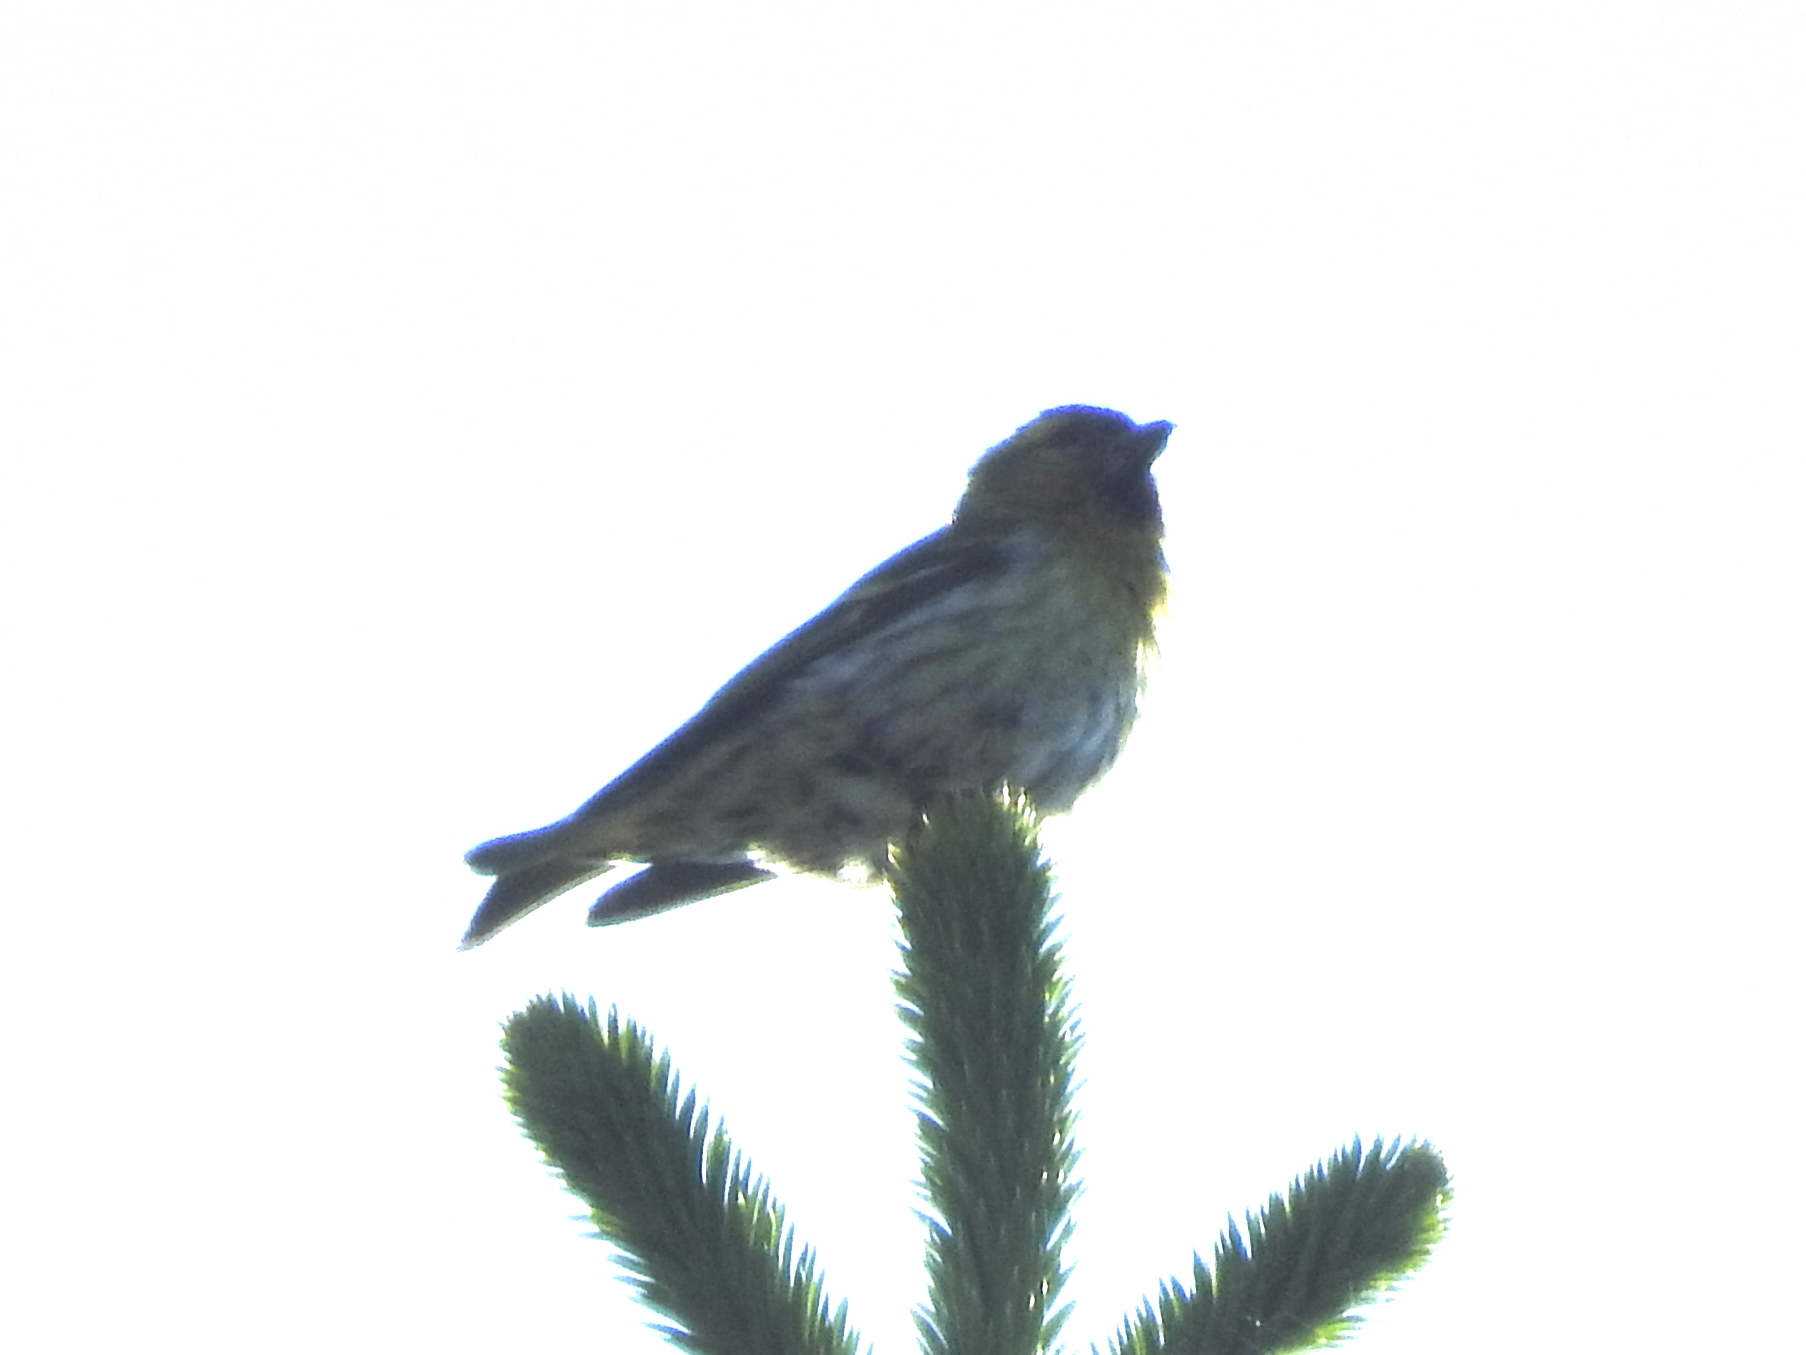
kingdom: Animalia
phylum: Chordata
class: Aves
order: Passeriformes
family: Fringillidae
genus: Spinus
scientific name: Spinus spinus
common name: Eurasian siskin
